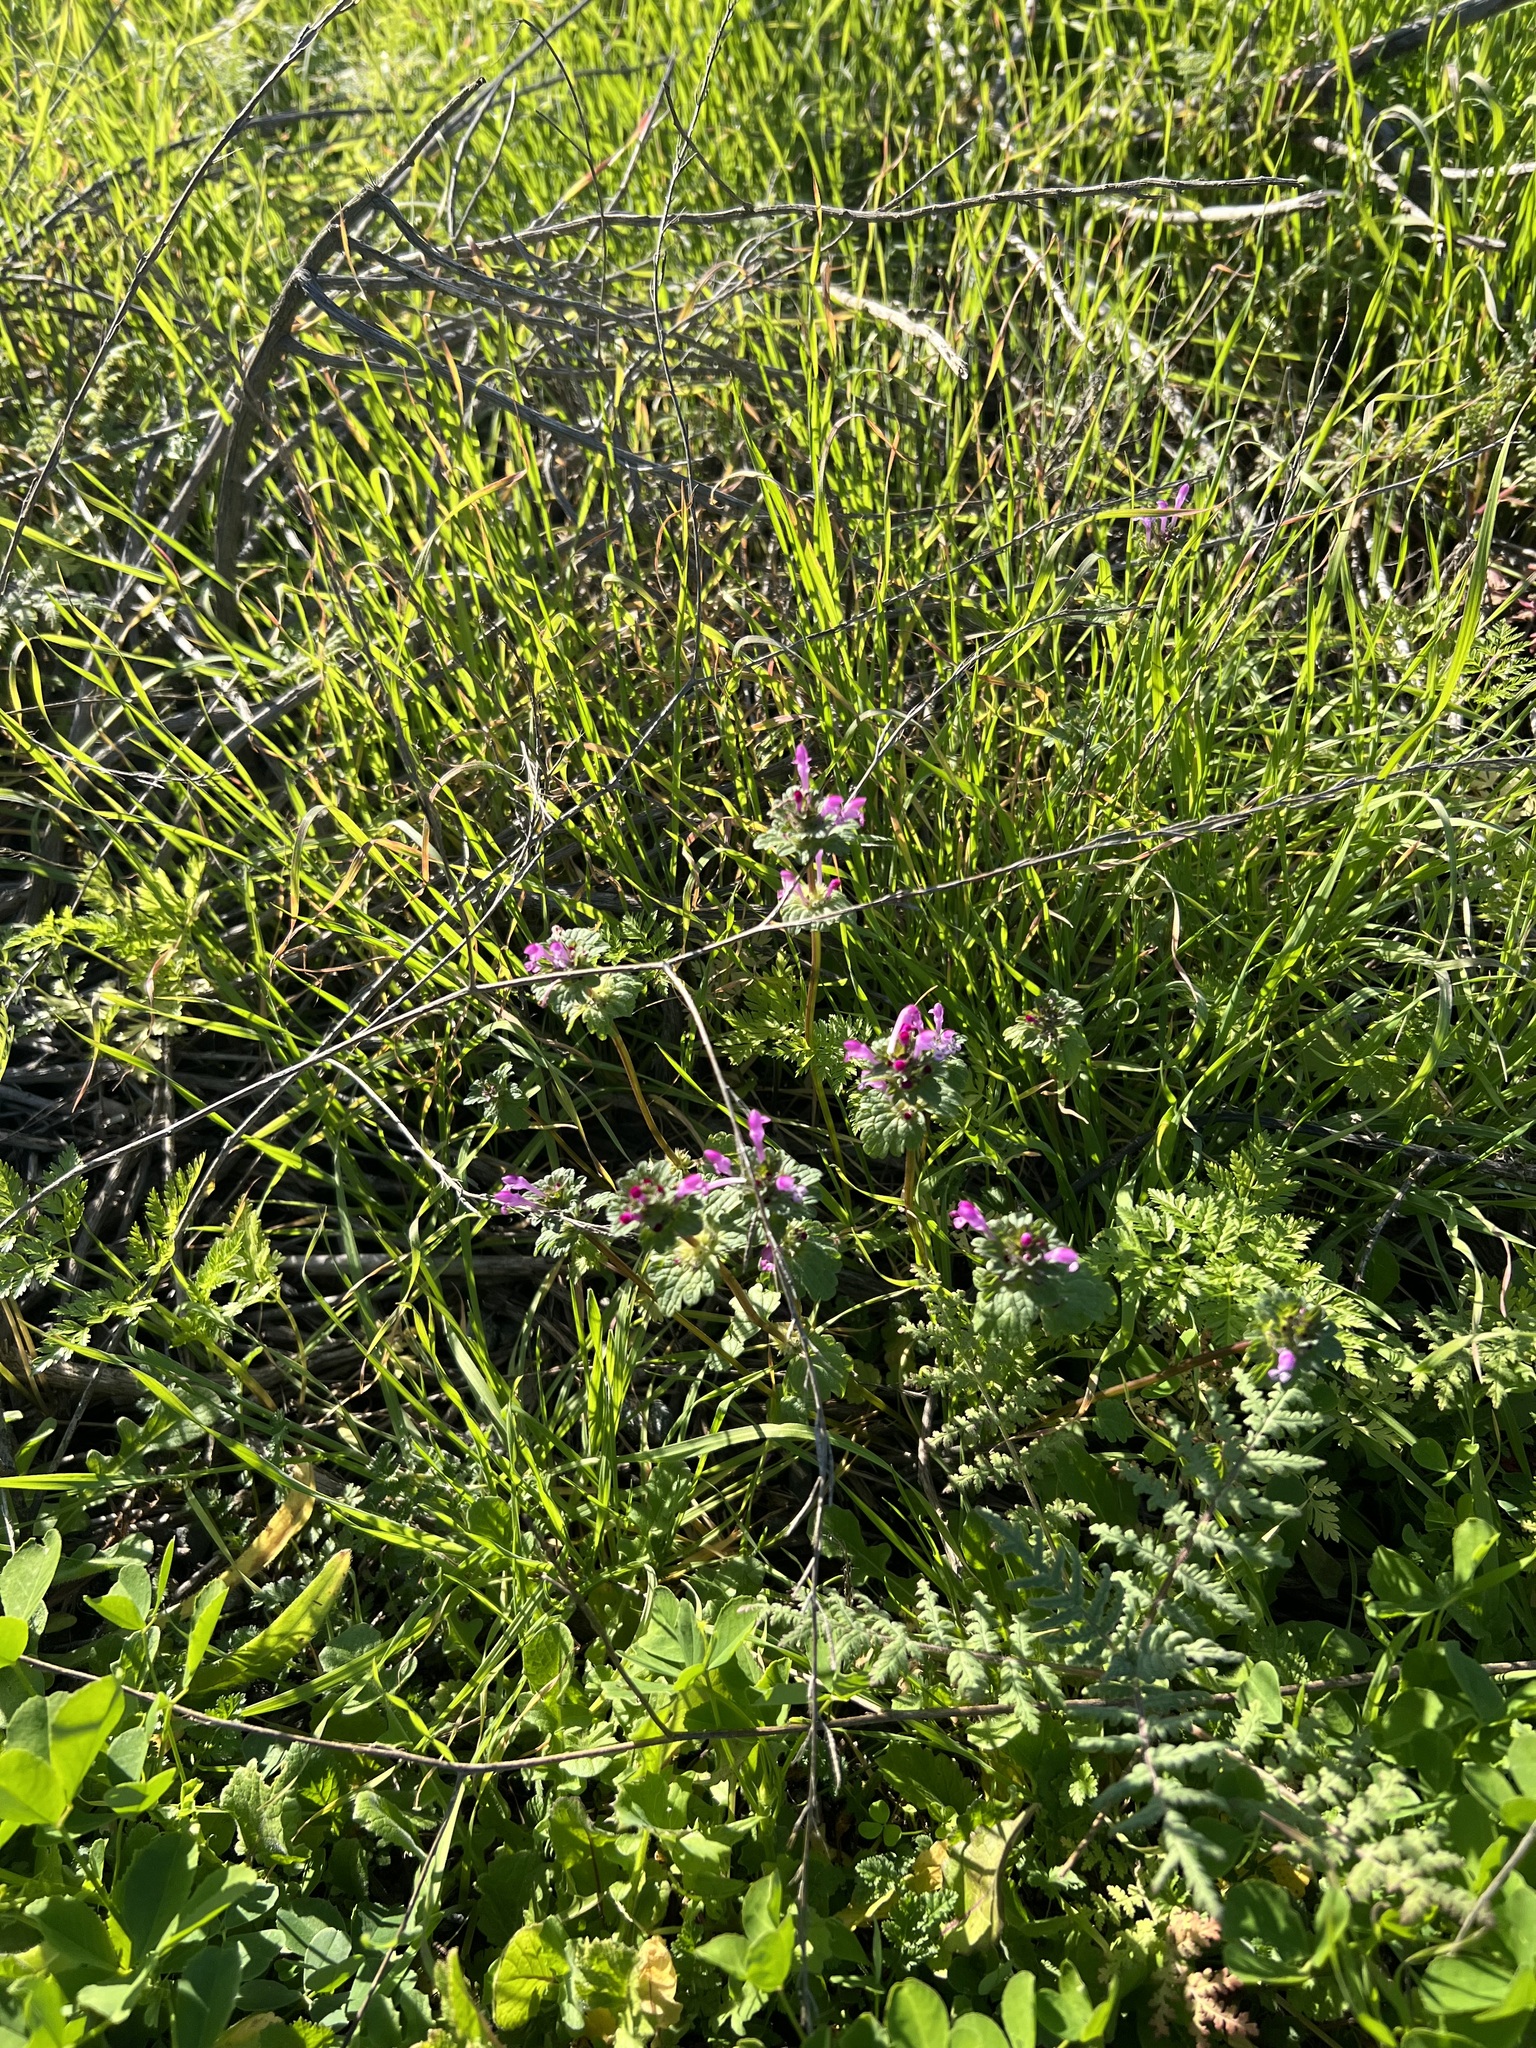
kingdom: Plantae
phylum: Tracheophyta
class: Magnoliopsida
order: Lamiales
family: Lamiaceae
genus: Lamium
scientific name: Lamium amplexicaule
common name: Henbit dead-nettle
